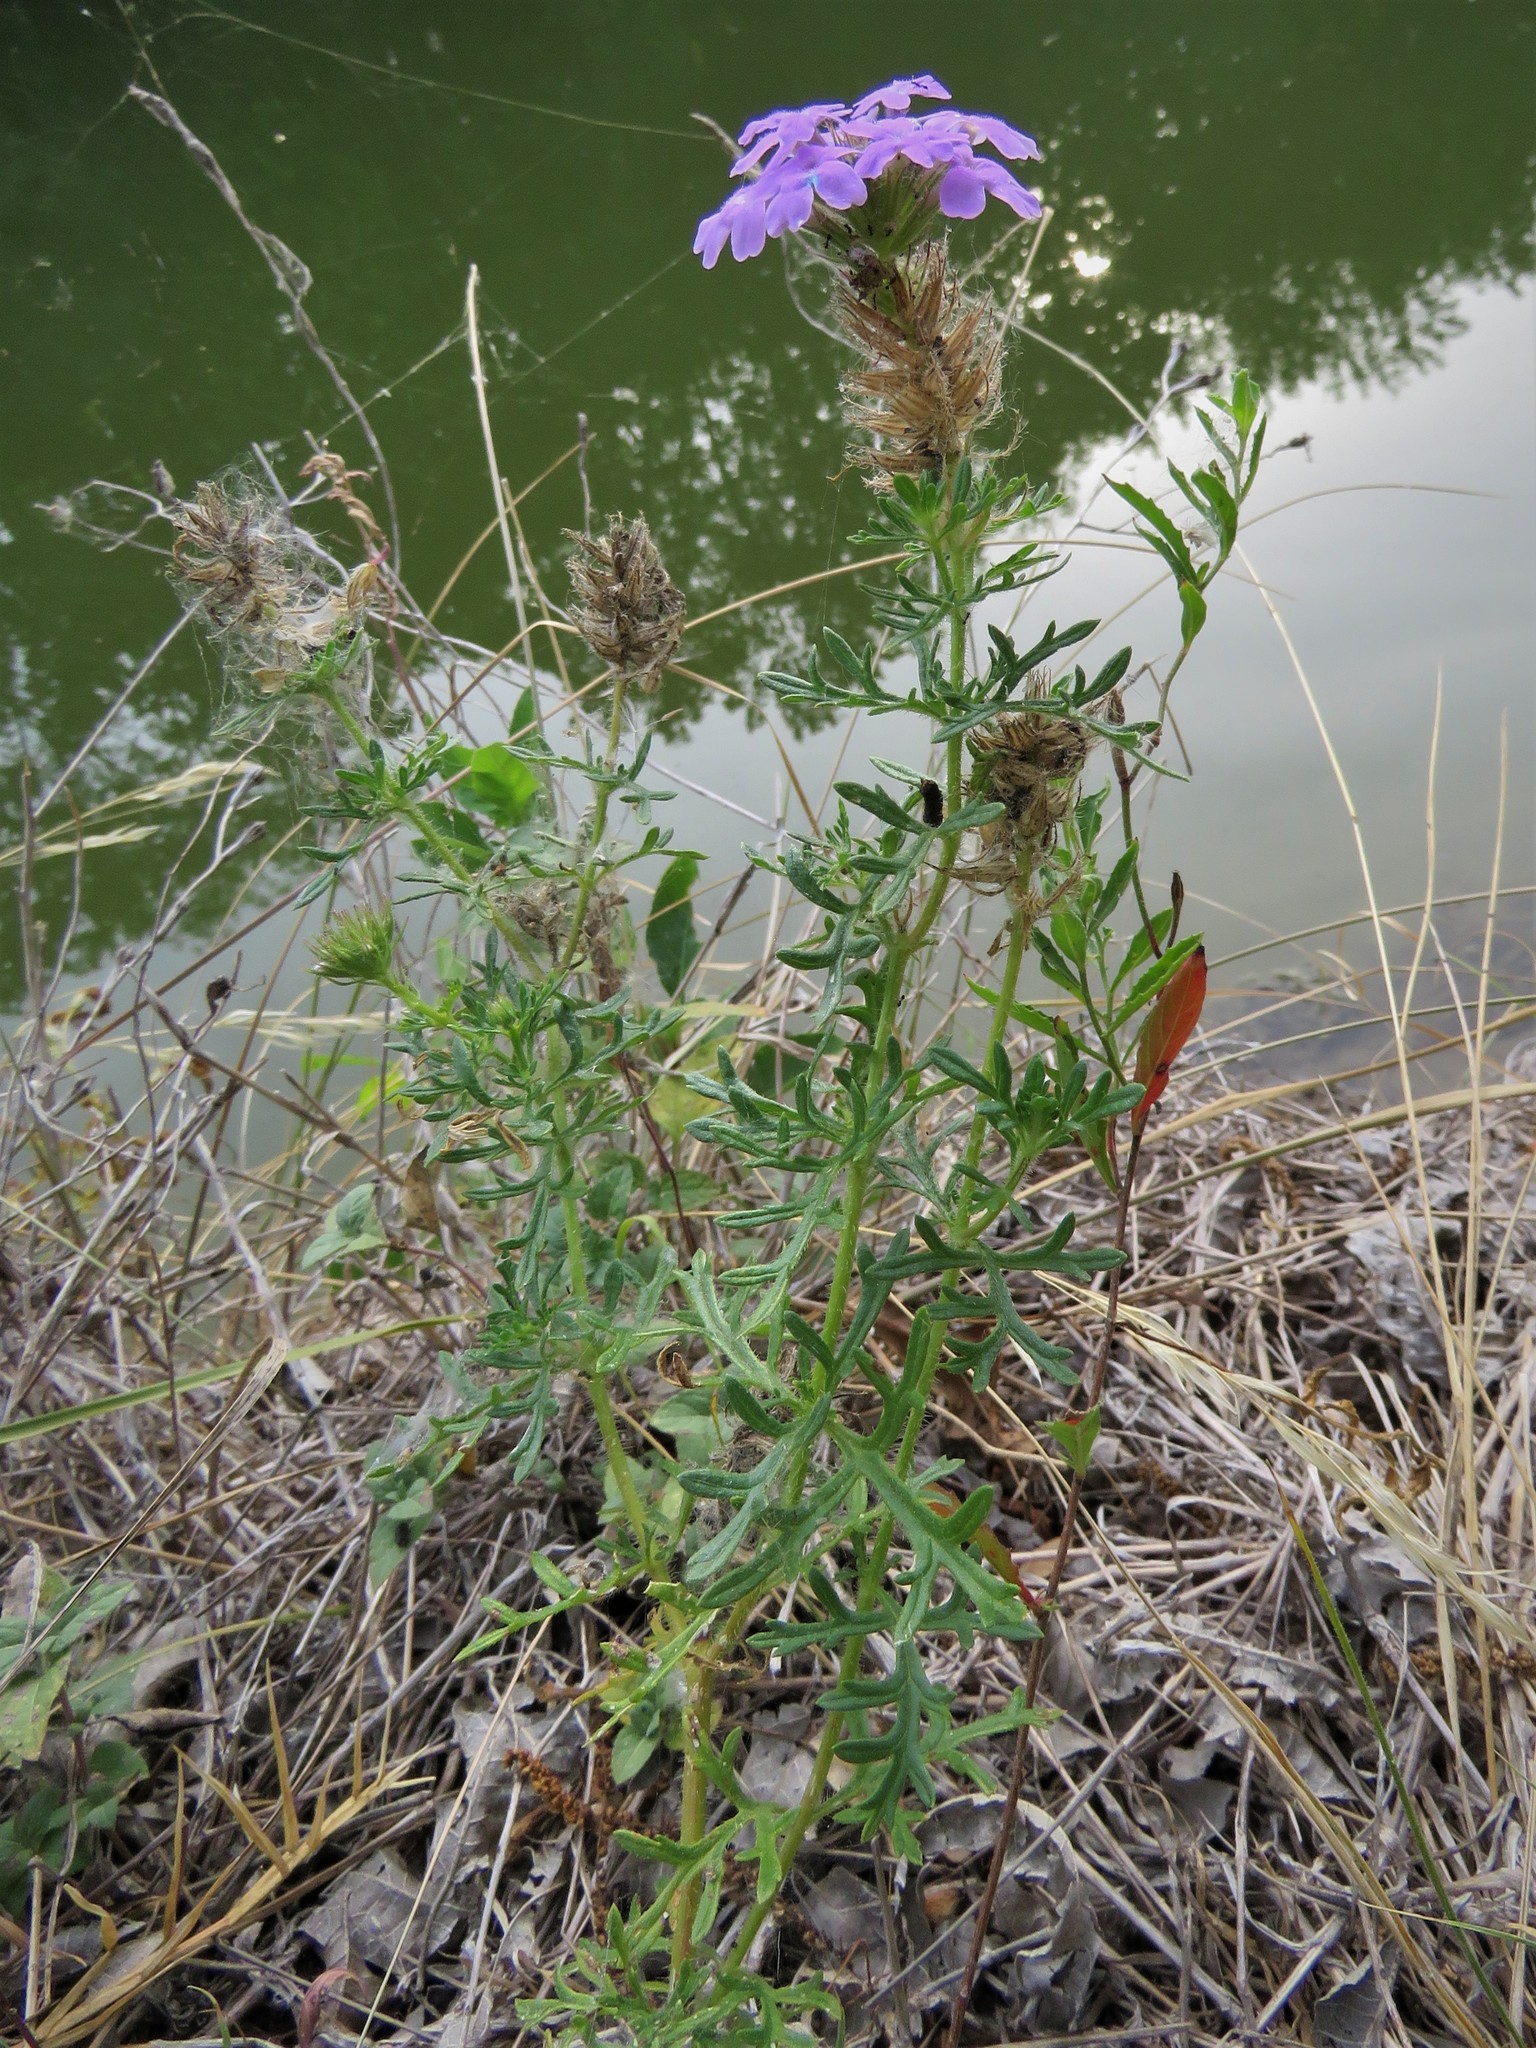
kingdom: Plantae
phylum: Tracheophyta
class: Magnoliopsida
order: Lamiales
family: Verbenaceae
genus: Verbena
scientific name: Verbena bipinnatifida
